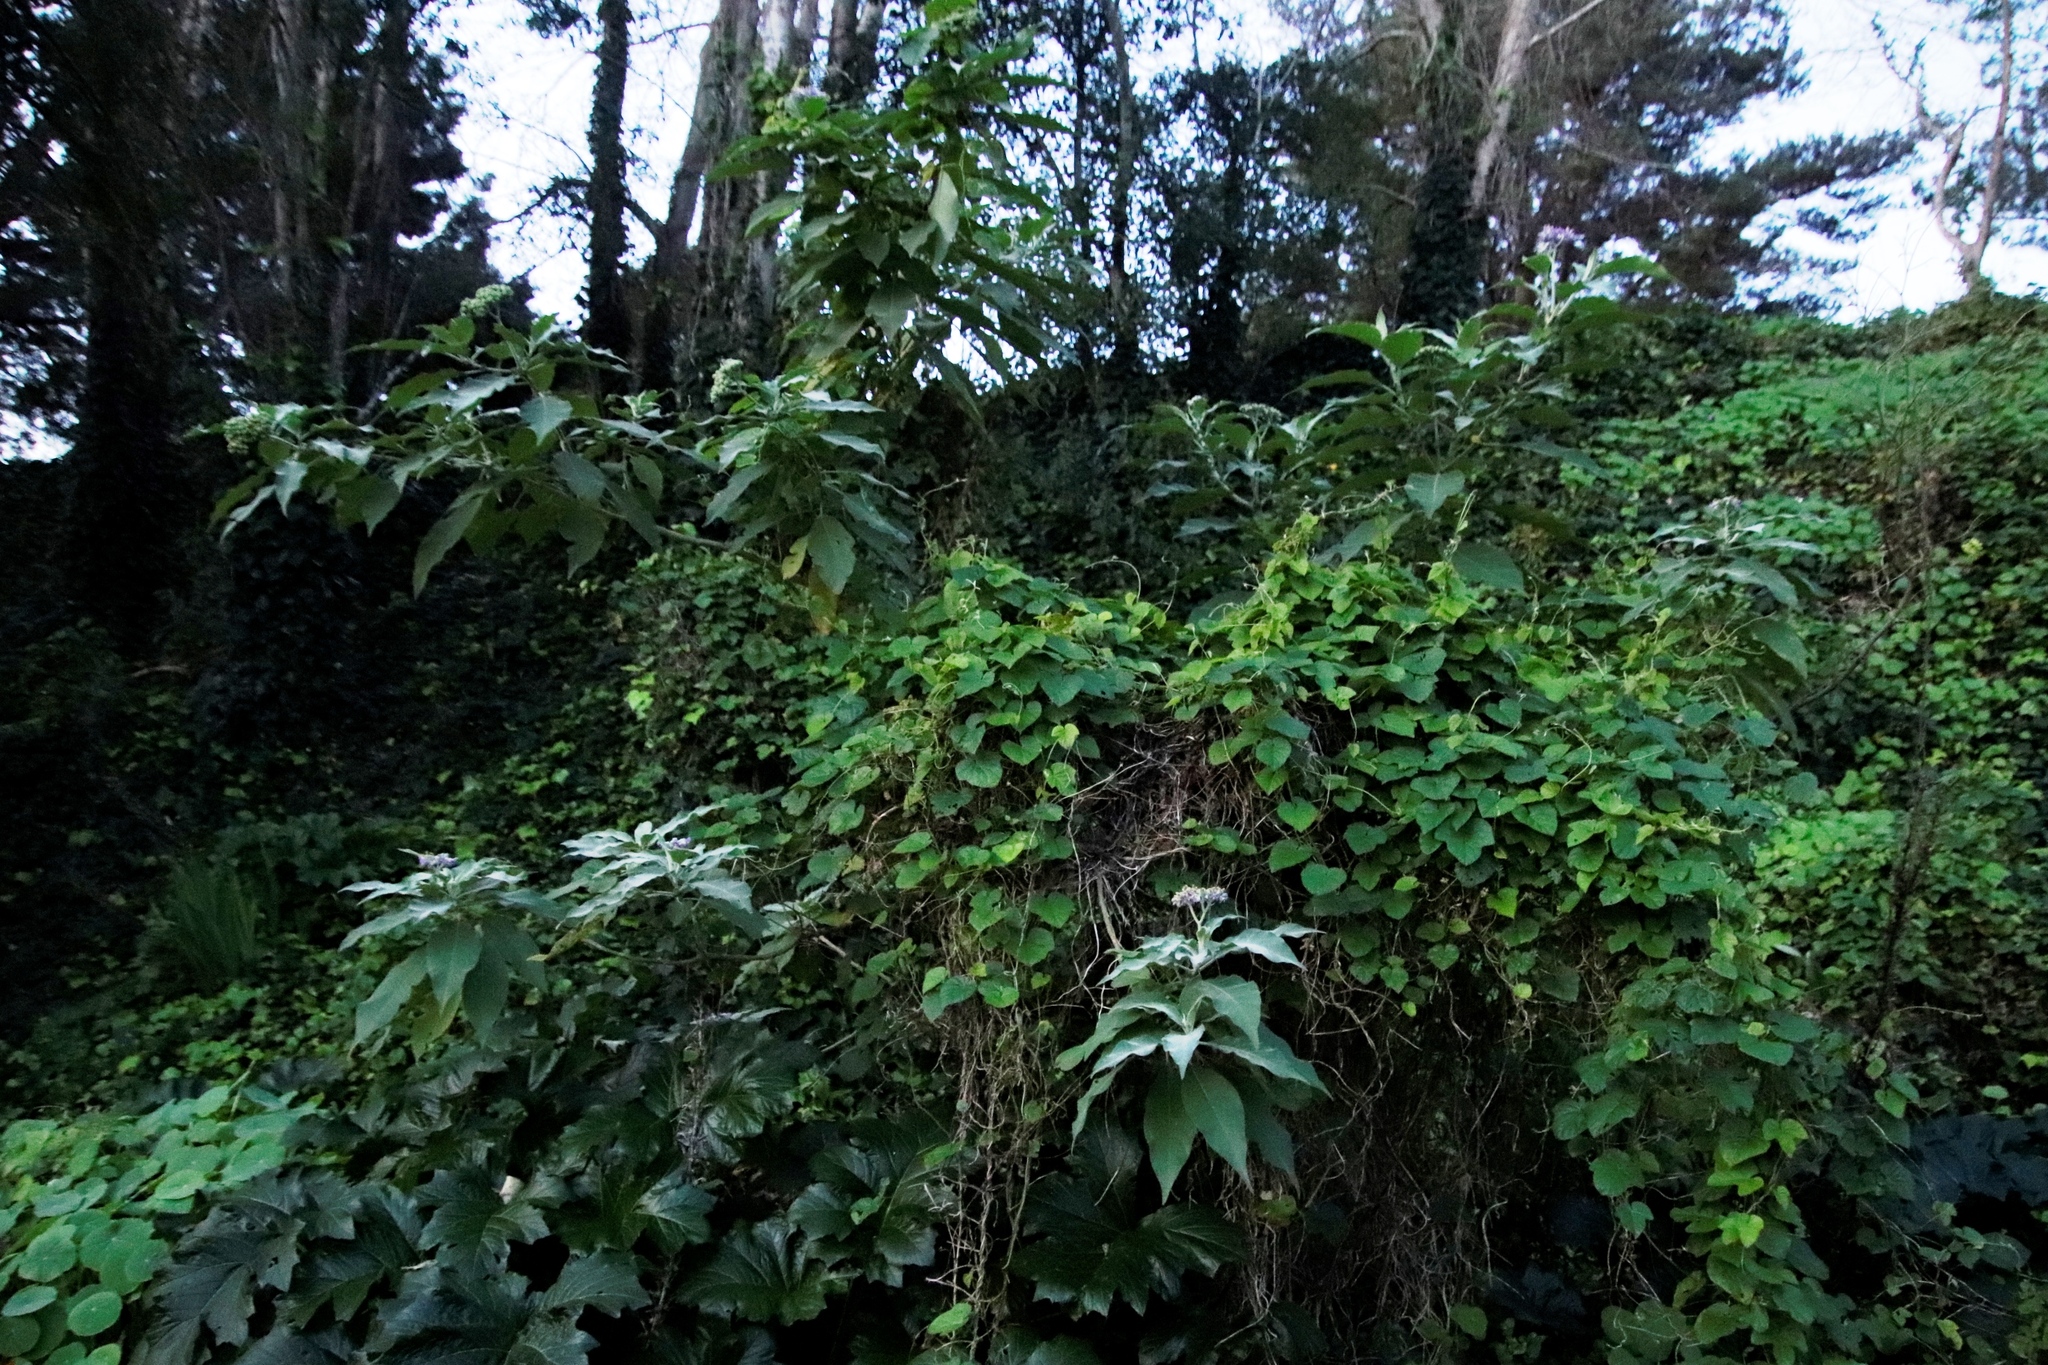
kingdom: Plantae
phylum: Tracheophyta
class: Magnoliopsida
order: Solanales
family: Solanaceae
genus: Solanum
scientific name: Solanum mauritianum
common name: Earleaf nightshade
